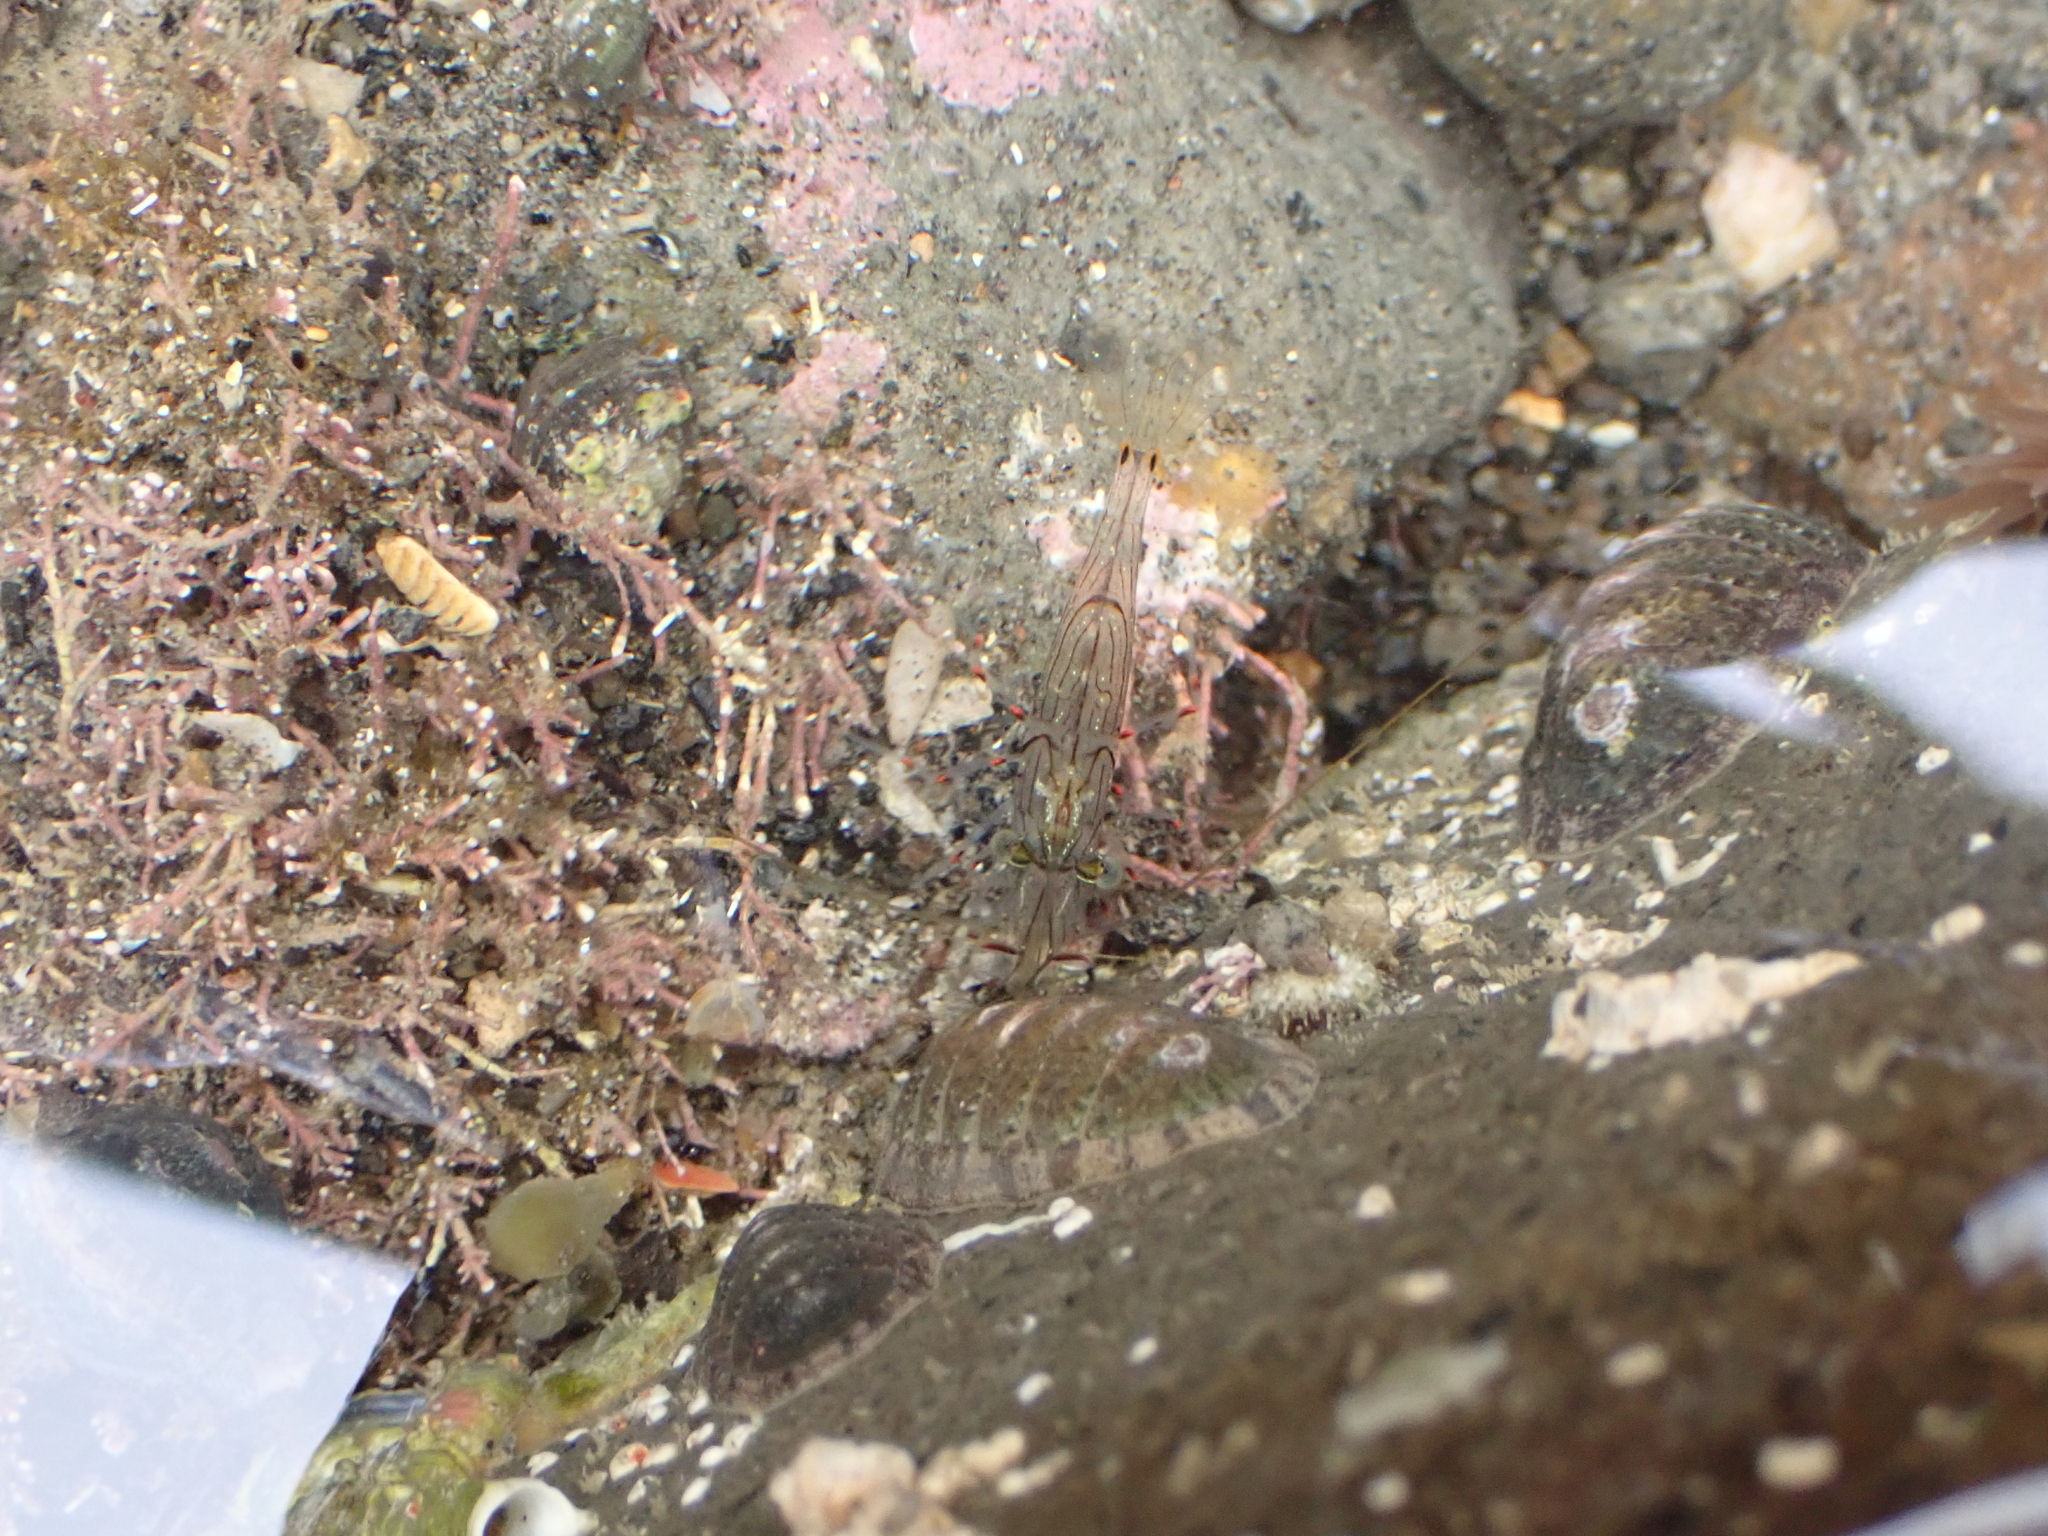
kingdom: Animalia
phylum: Arthropoda
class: Malacostraca
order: Decapoda
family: Palaemonidae
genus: Palaemon
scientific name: Palaemon affinis
